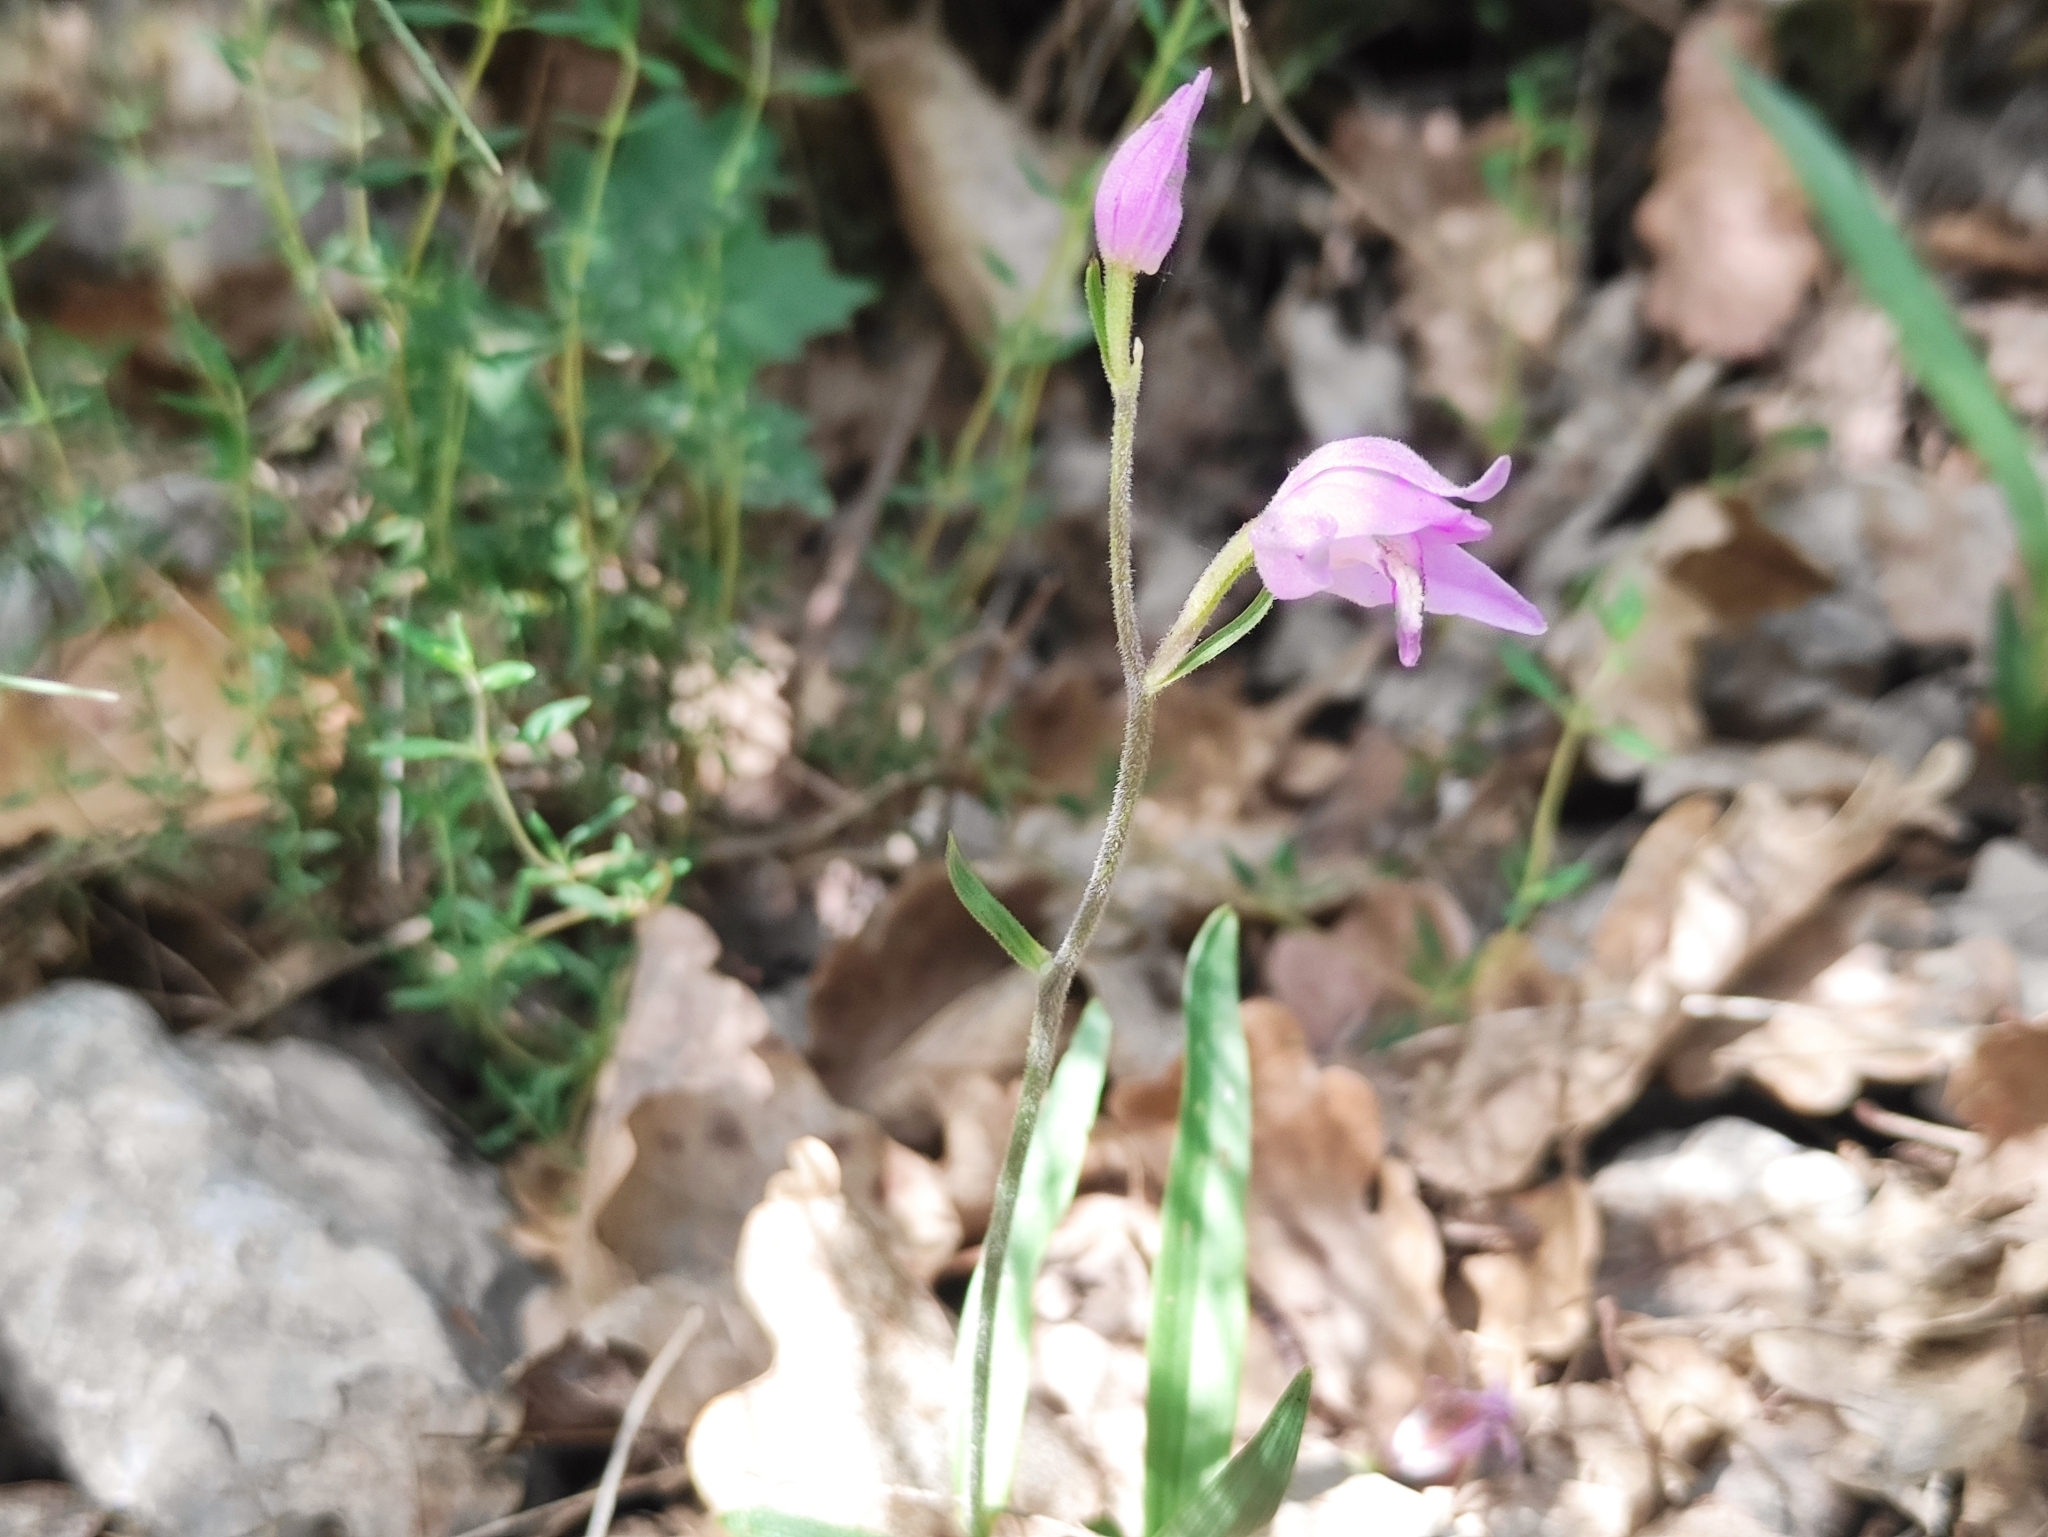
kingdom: Plantae
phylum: Tracheophyta
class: Liliopsida
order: Asparagales
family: Orchidaceae
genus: Cephalanthera
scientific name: Cephalanthera rubra
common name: Red helleborine
